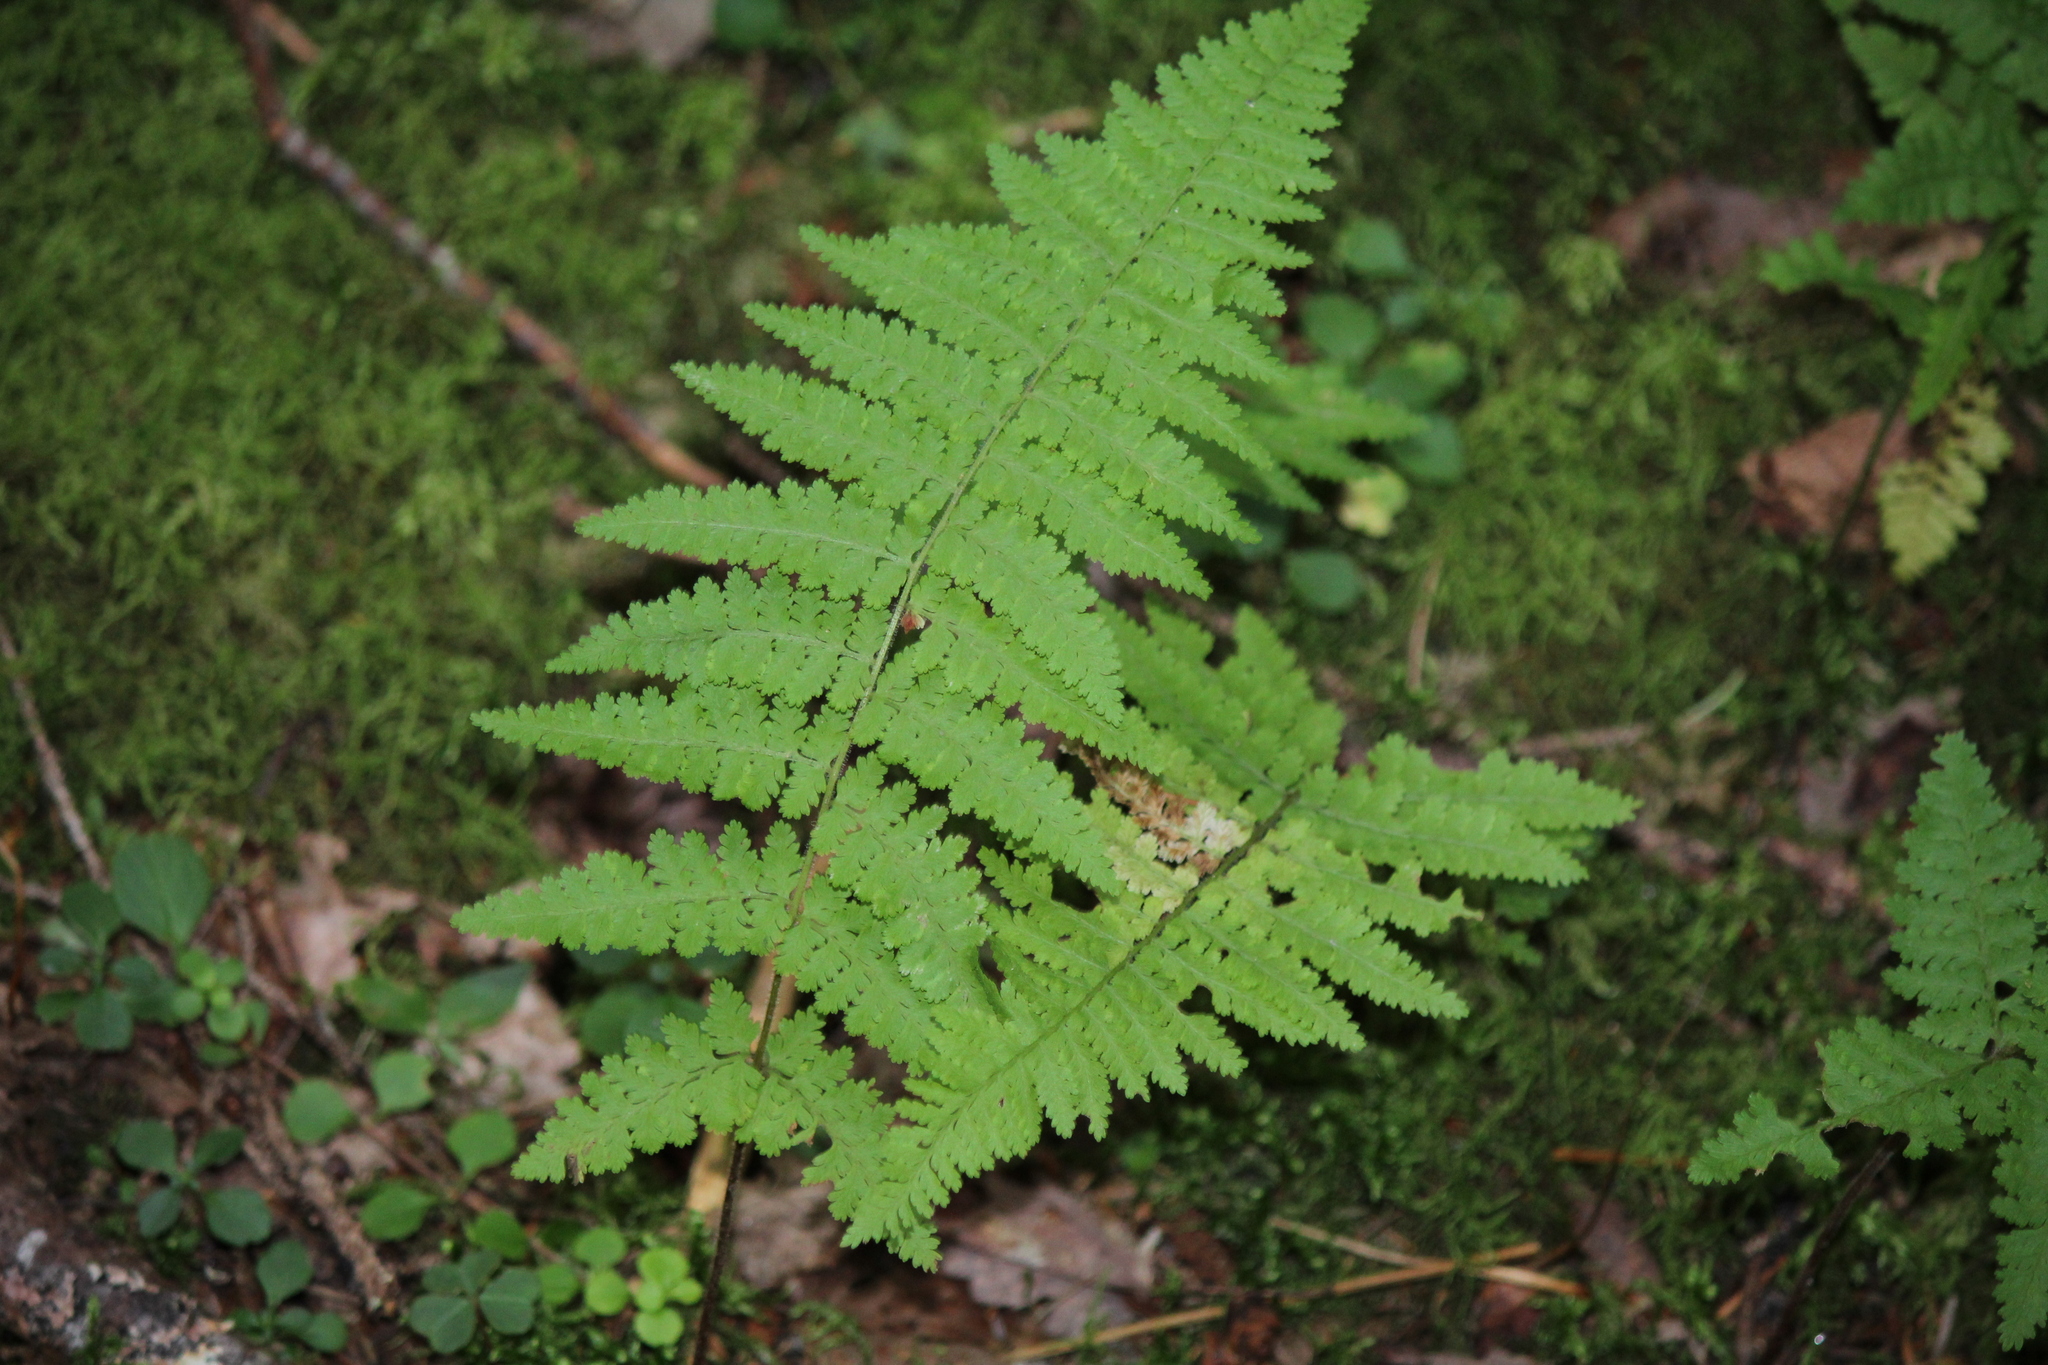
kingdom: Plantae
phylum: Tracheophyta
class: Polypodiopsida
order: Polypodiales
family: Dennstaedtiaceae
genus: Sitobolium
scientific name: Sitobolium punctilobum
